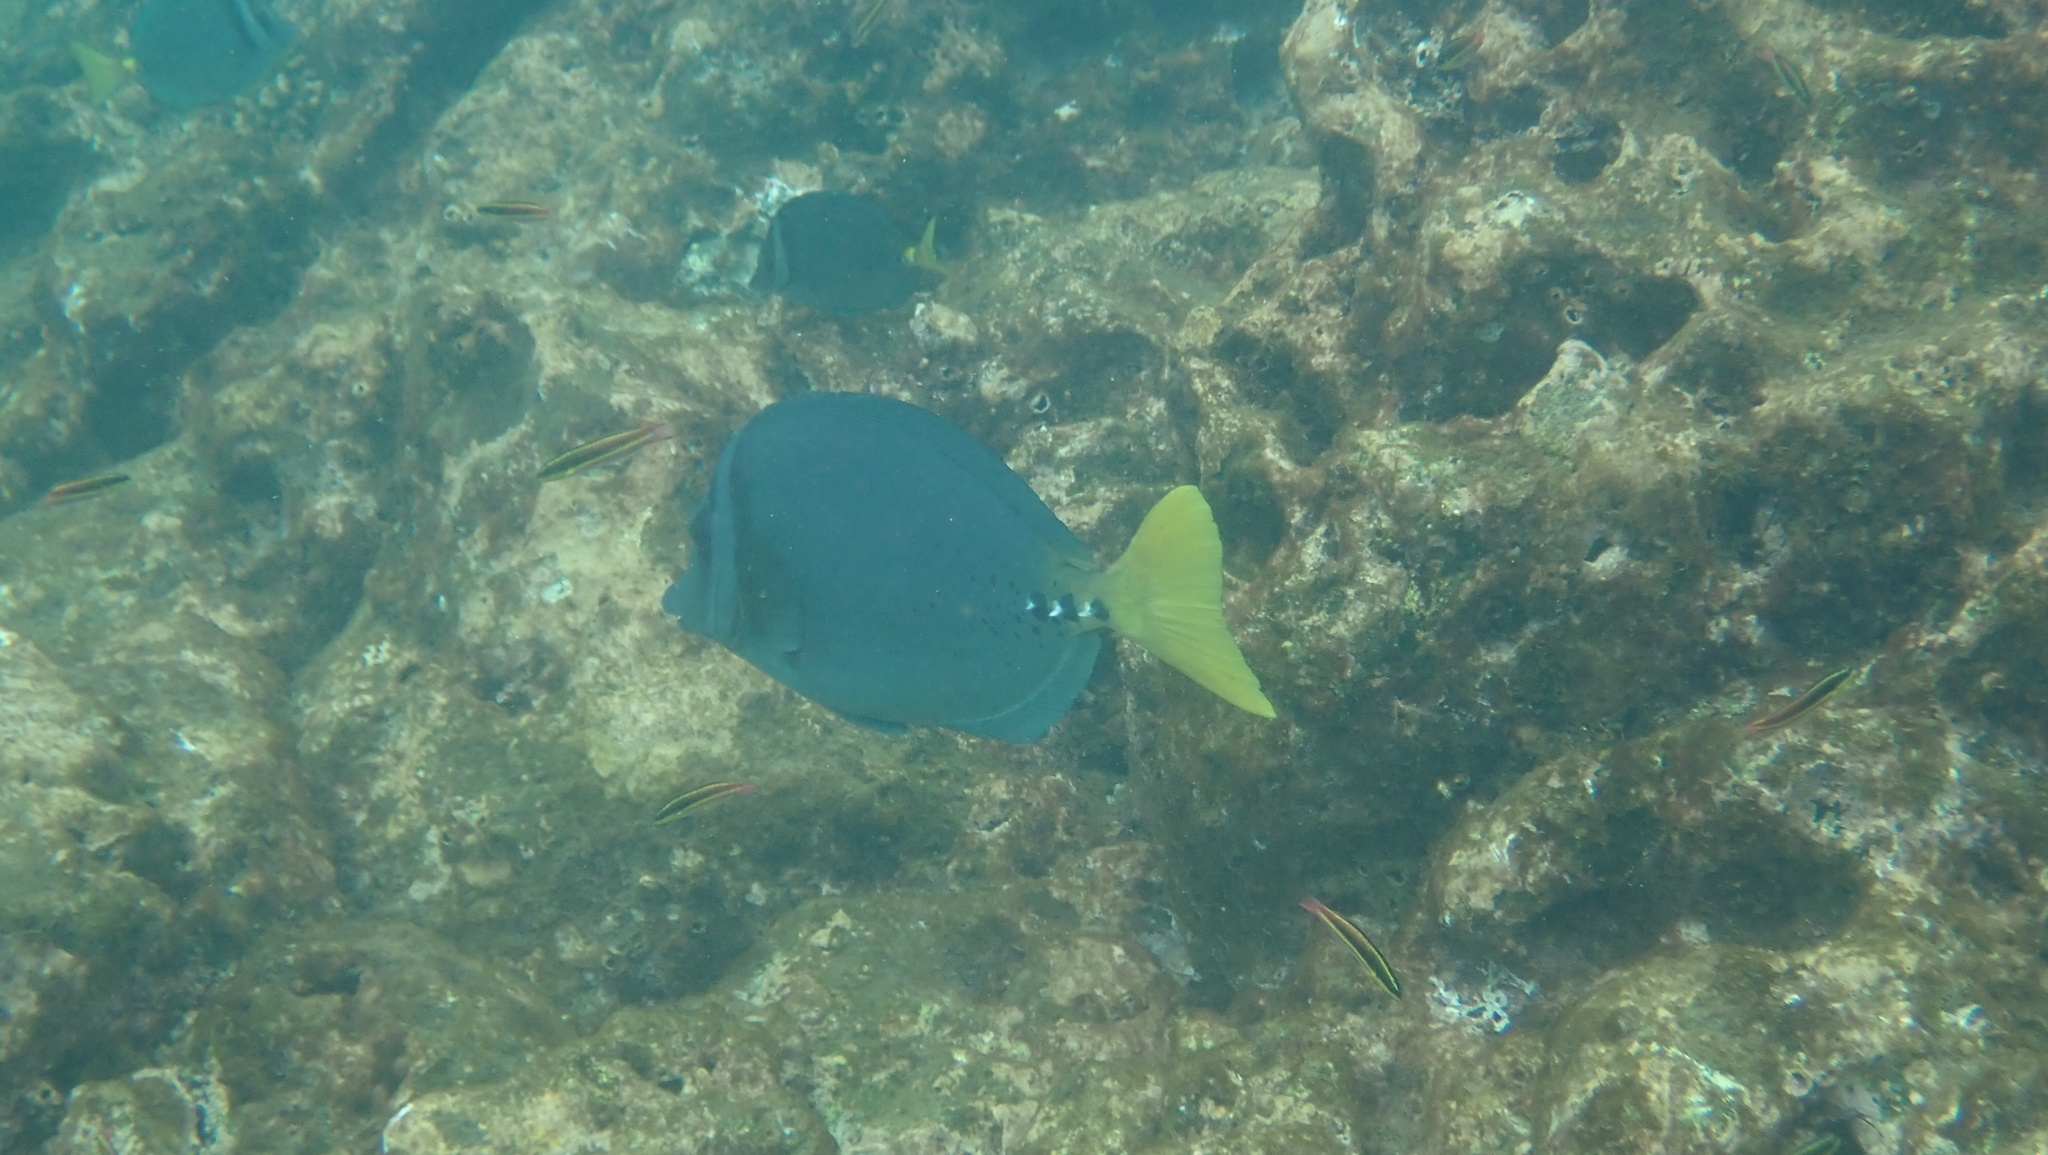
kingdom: Animalia
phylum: Chordata
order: Perciformes
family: Acanthuridae
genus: Prionurus
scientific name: Prionurus laticlavius
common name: Razor surgeonfish
